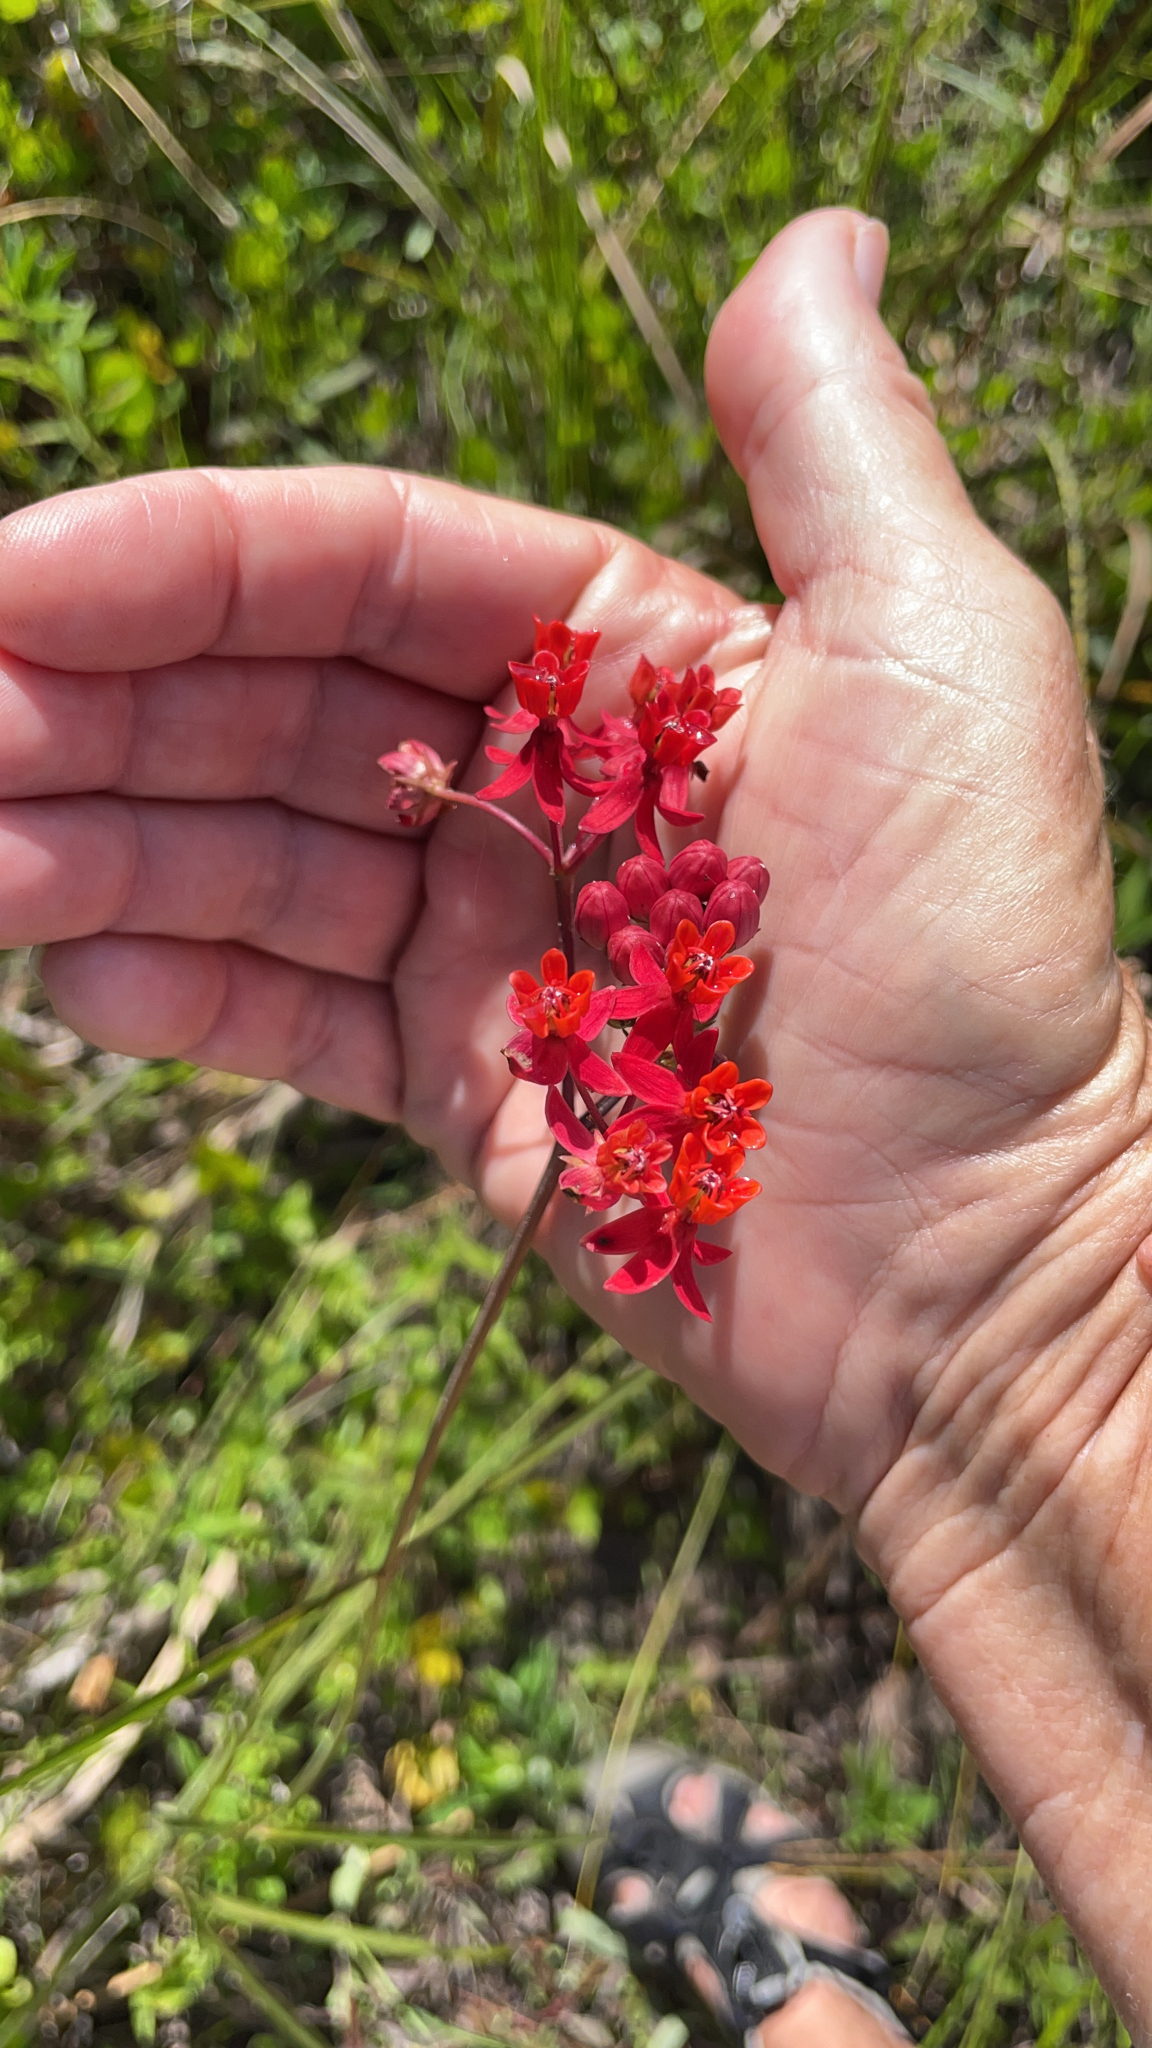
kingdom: Plantae
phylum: Tracheophyta
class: Magnoliopsida
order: Gentianales
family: Apocynaceae
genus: Asclepias
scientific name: Asclepias lanceolata
